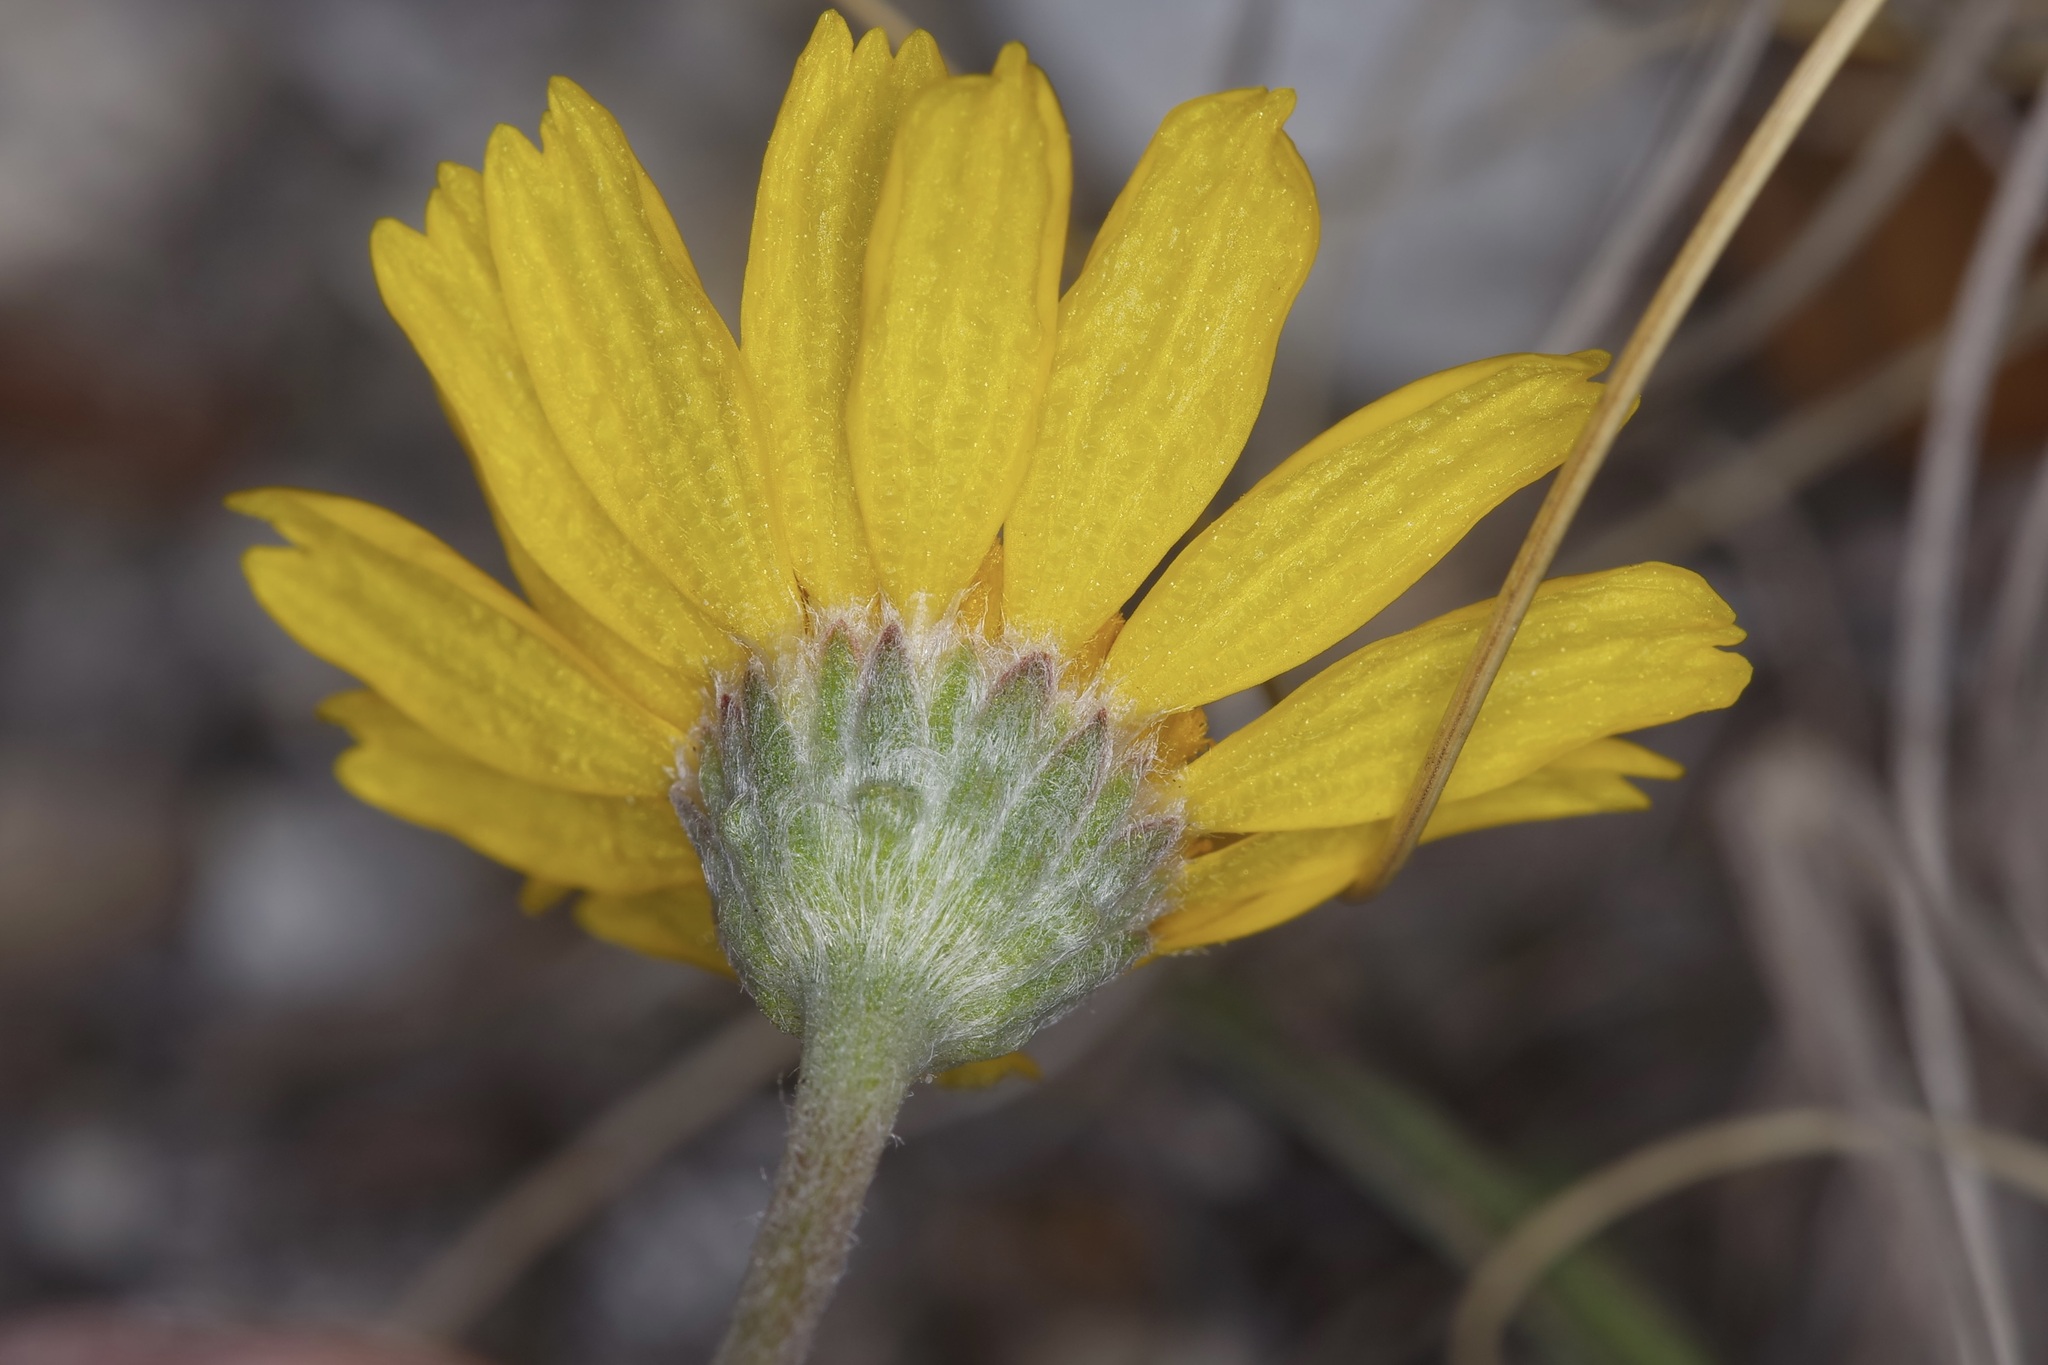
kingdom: Plantae
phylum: Tracheophyta
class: Magnoliopsida
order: Asterales
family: Asteraceae
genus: Tetraneuris
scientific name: Tetraneuris scaposa
